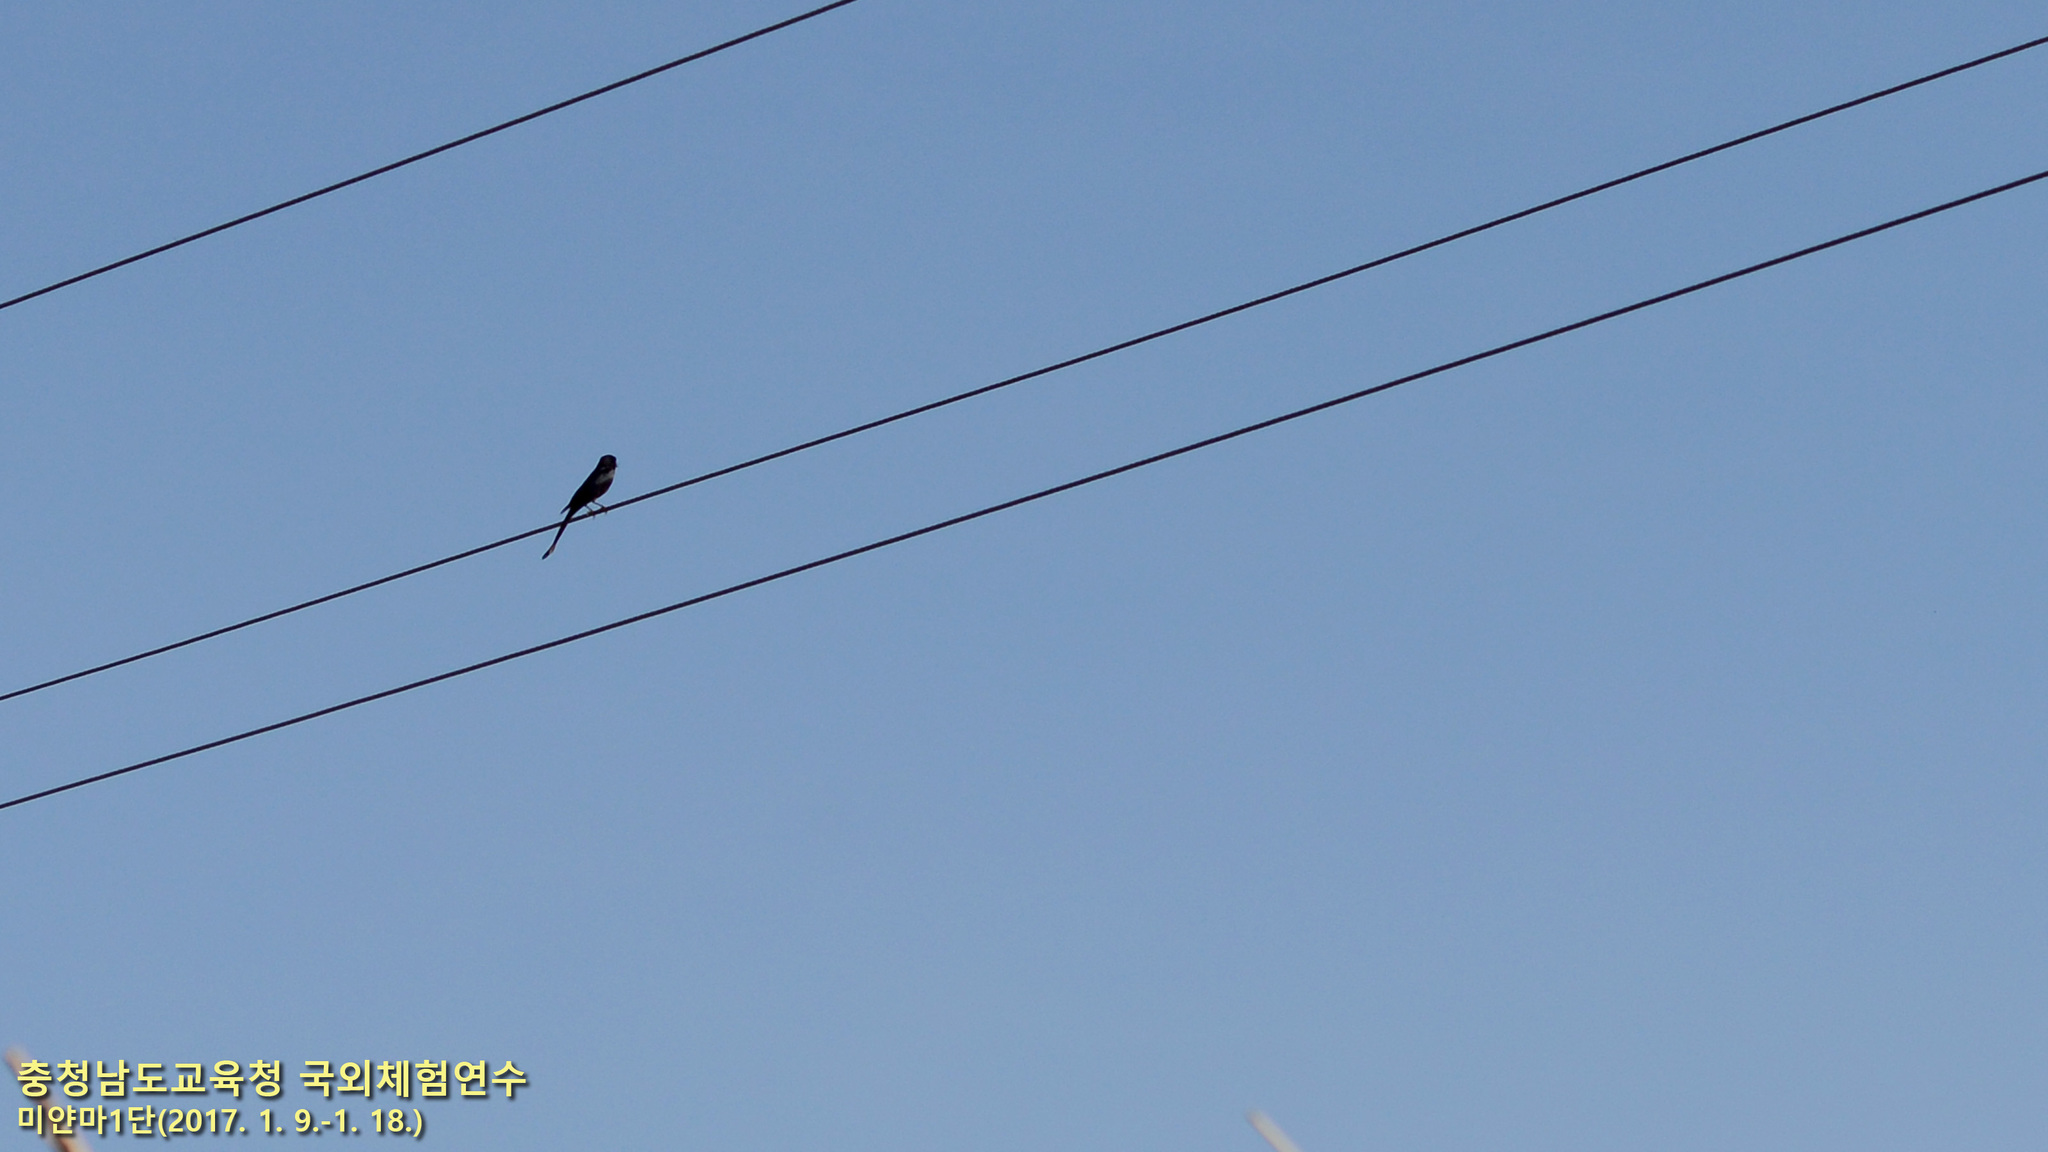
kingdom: Animalia
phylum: Chordata
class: Aves
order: Passeriformes
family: Dicruridae
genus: Dicrurus
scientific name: Dicrurus
